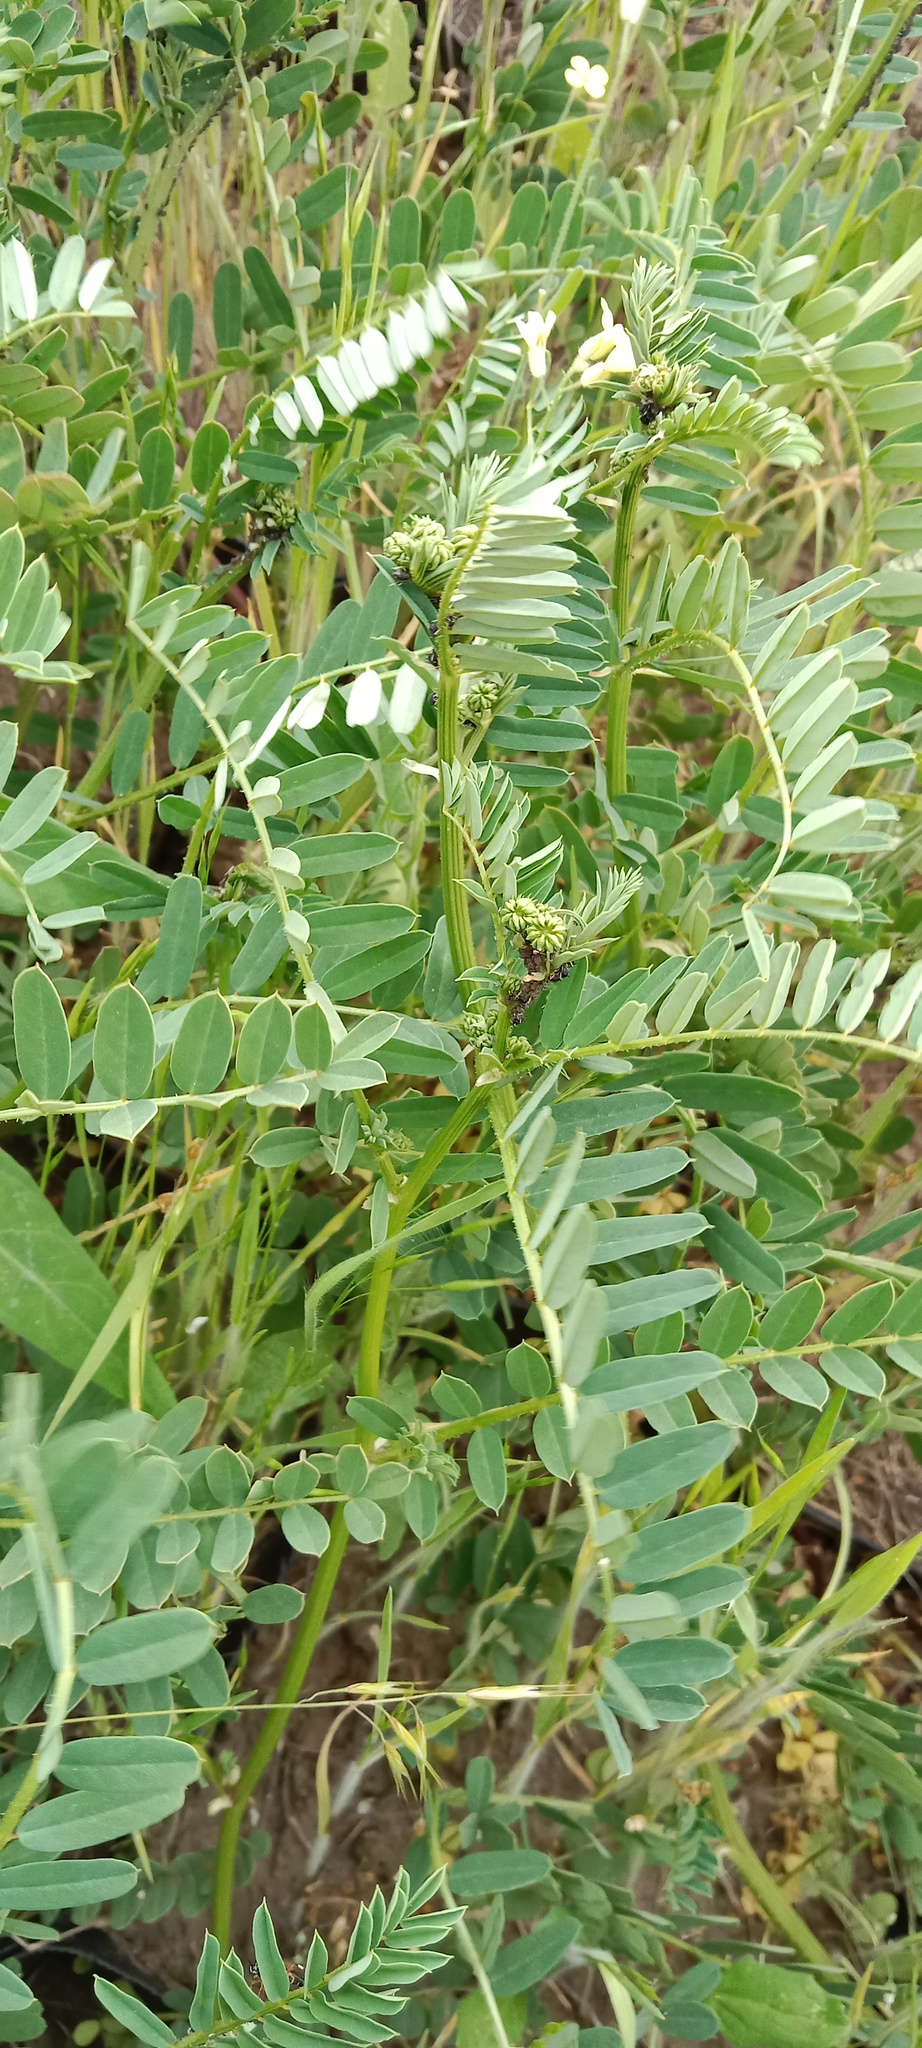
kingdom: Plantae
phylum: Tracheophyta
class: Magnoliopsida
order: Fabales
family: Fabaceae
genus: Coronilla
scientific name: Coronilla varia
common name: Crownvetch
